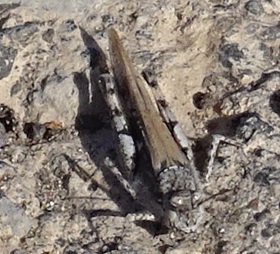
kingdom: Animalia
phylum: Arthropoda
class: Insecta
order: Orthoptera
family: Acrididae
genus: Acrotylus
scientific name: Acrotylus insubricus
